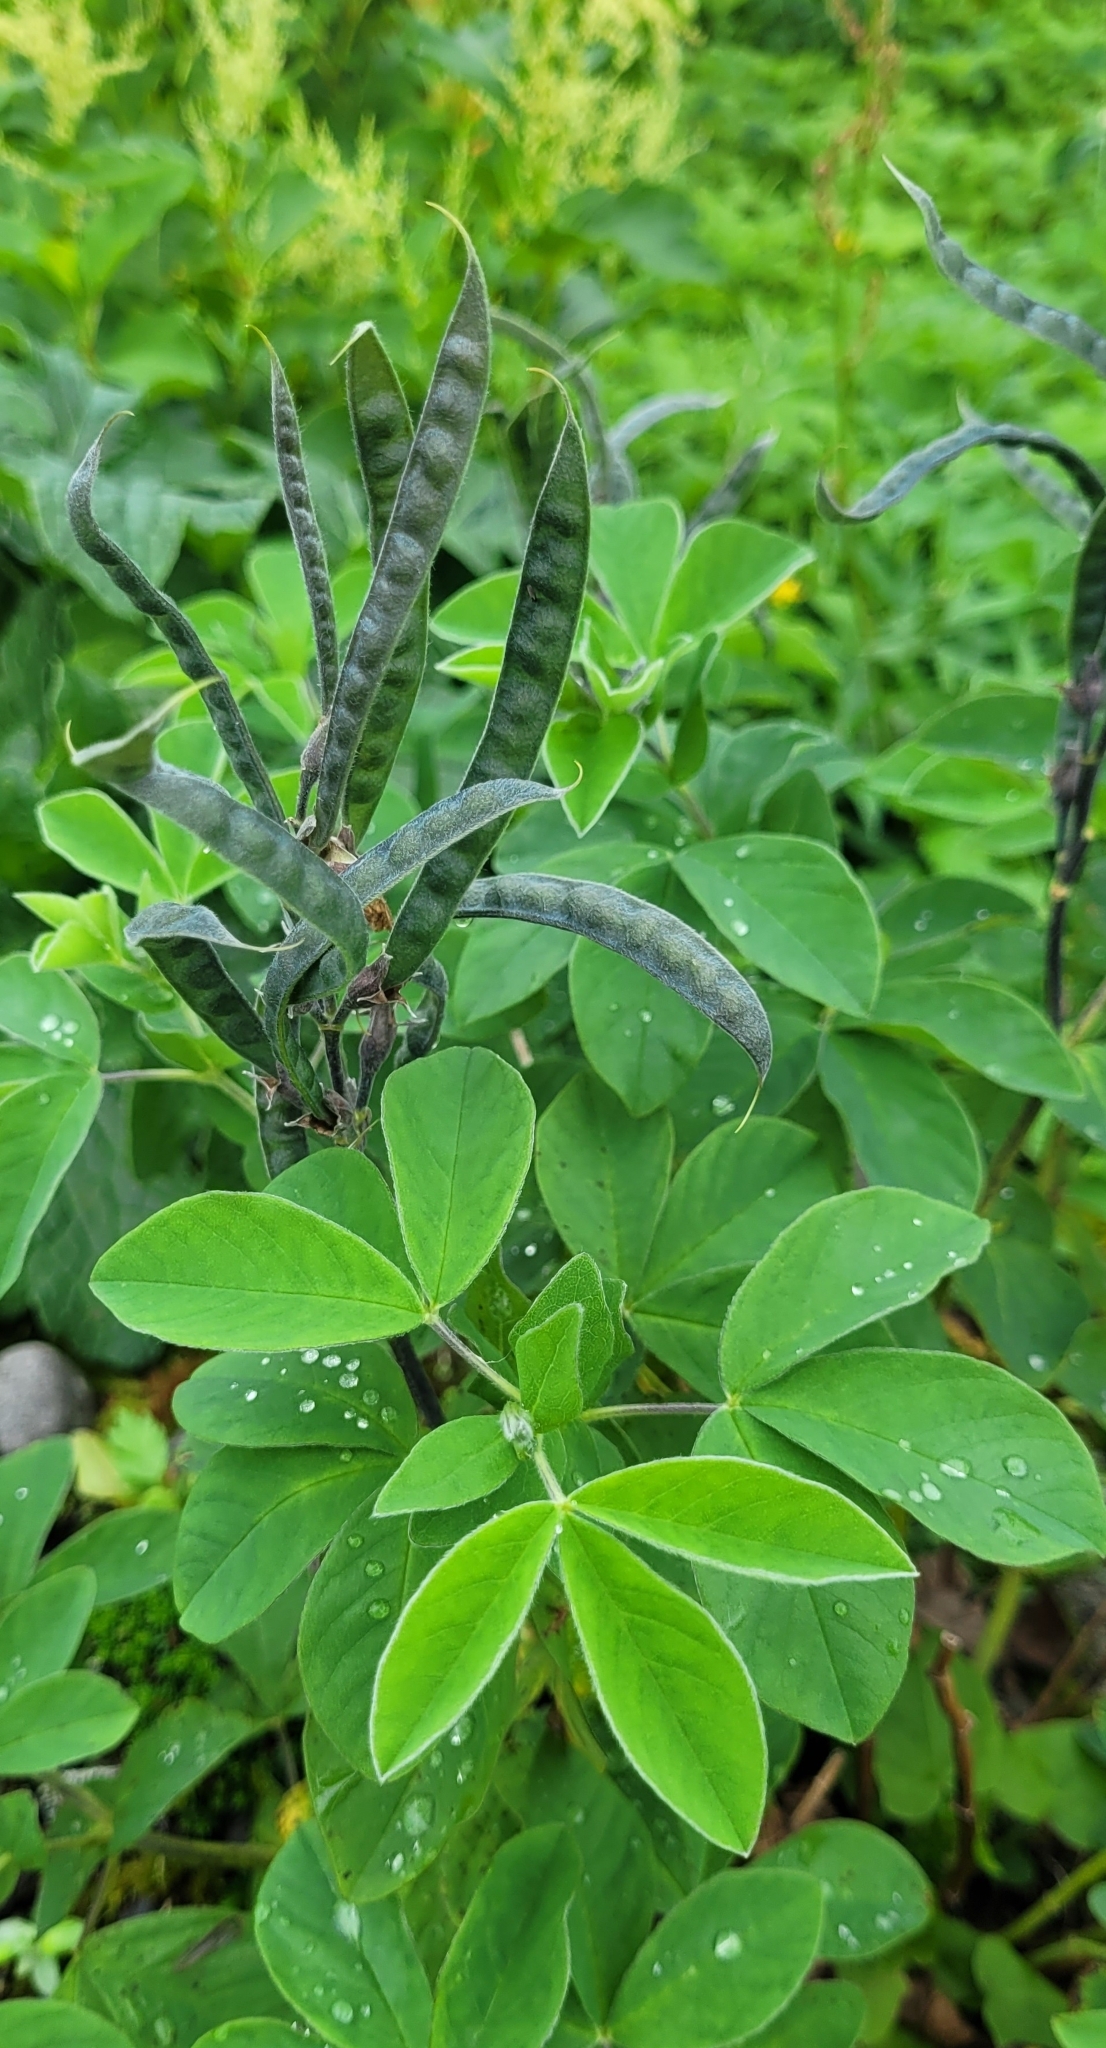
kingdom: Plantae
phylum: Tracheophyta
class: Magnoliopsida
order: Fabales
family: Fabaceae
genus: Thermopsis
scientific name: Thermopsis lanceolata
